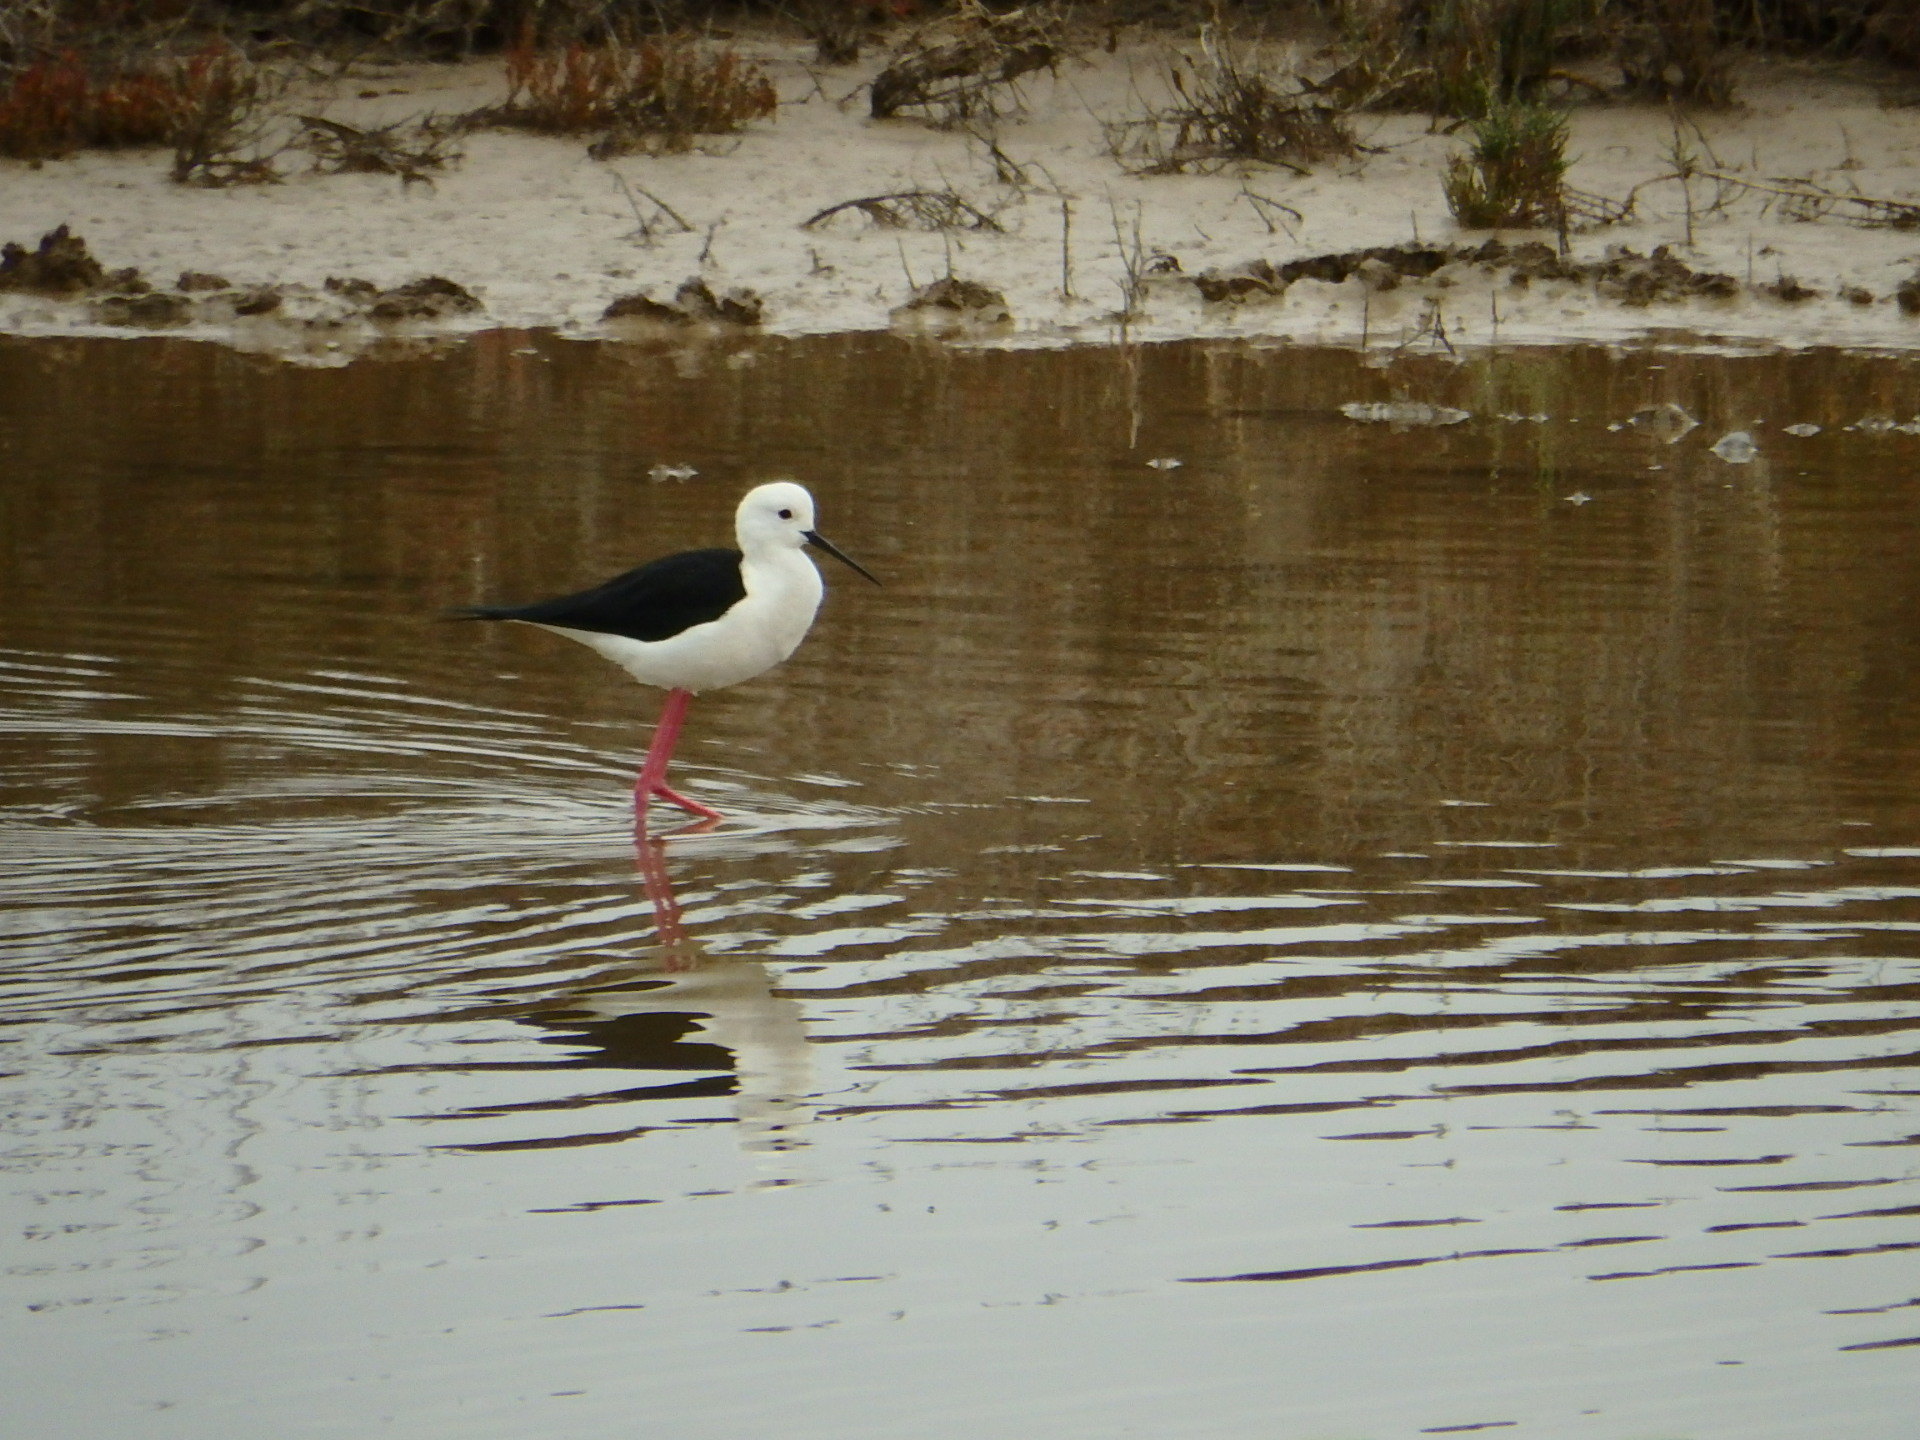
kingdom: Animalia
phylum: Chordata
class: Aves
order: Charadriiformes
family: Recurvirostridae
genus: Himantopus
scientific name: Himantopus himantopus
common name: Black-winged stilt
